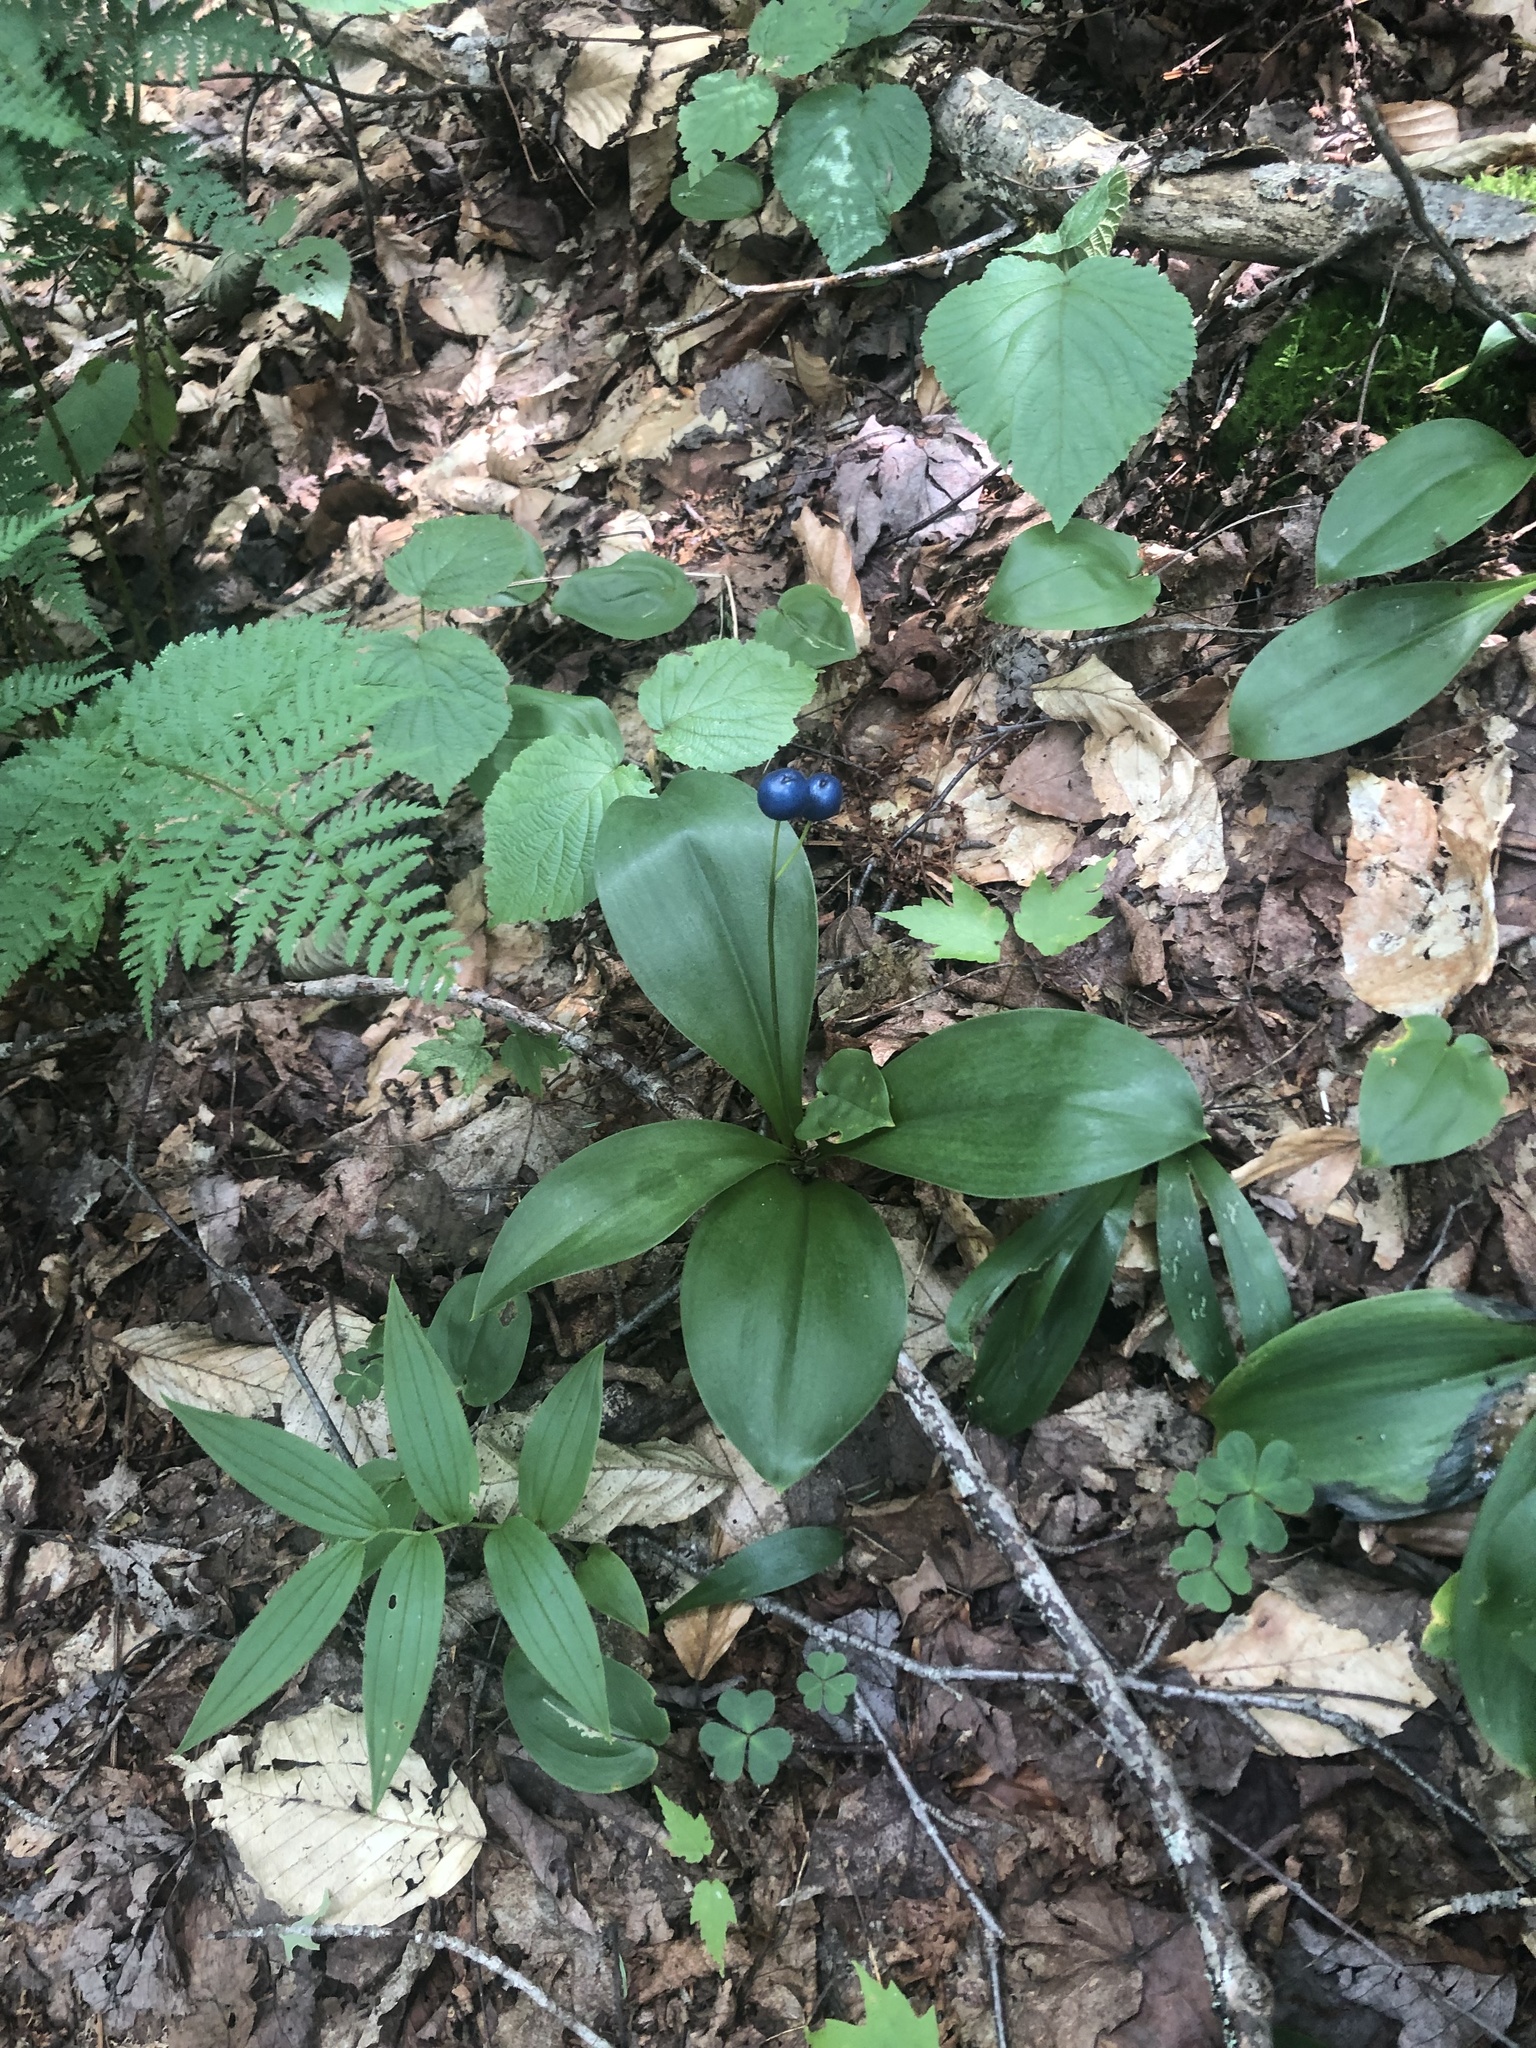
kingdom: Plantae
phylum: Tracheophyta
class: Liliopsida
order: Liliales
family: Liliaceae
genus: Clintonia
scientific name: Clintonia borealis
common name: Yellow clintonia
